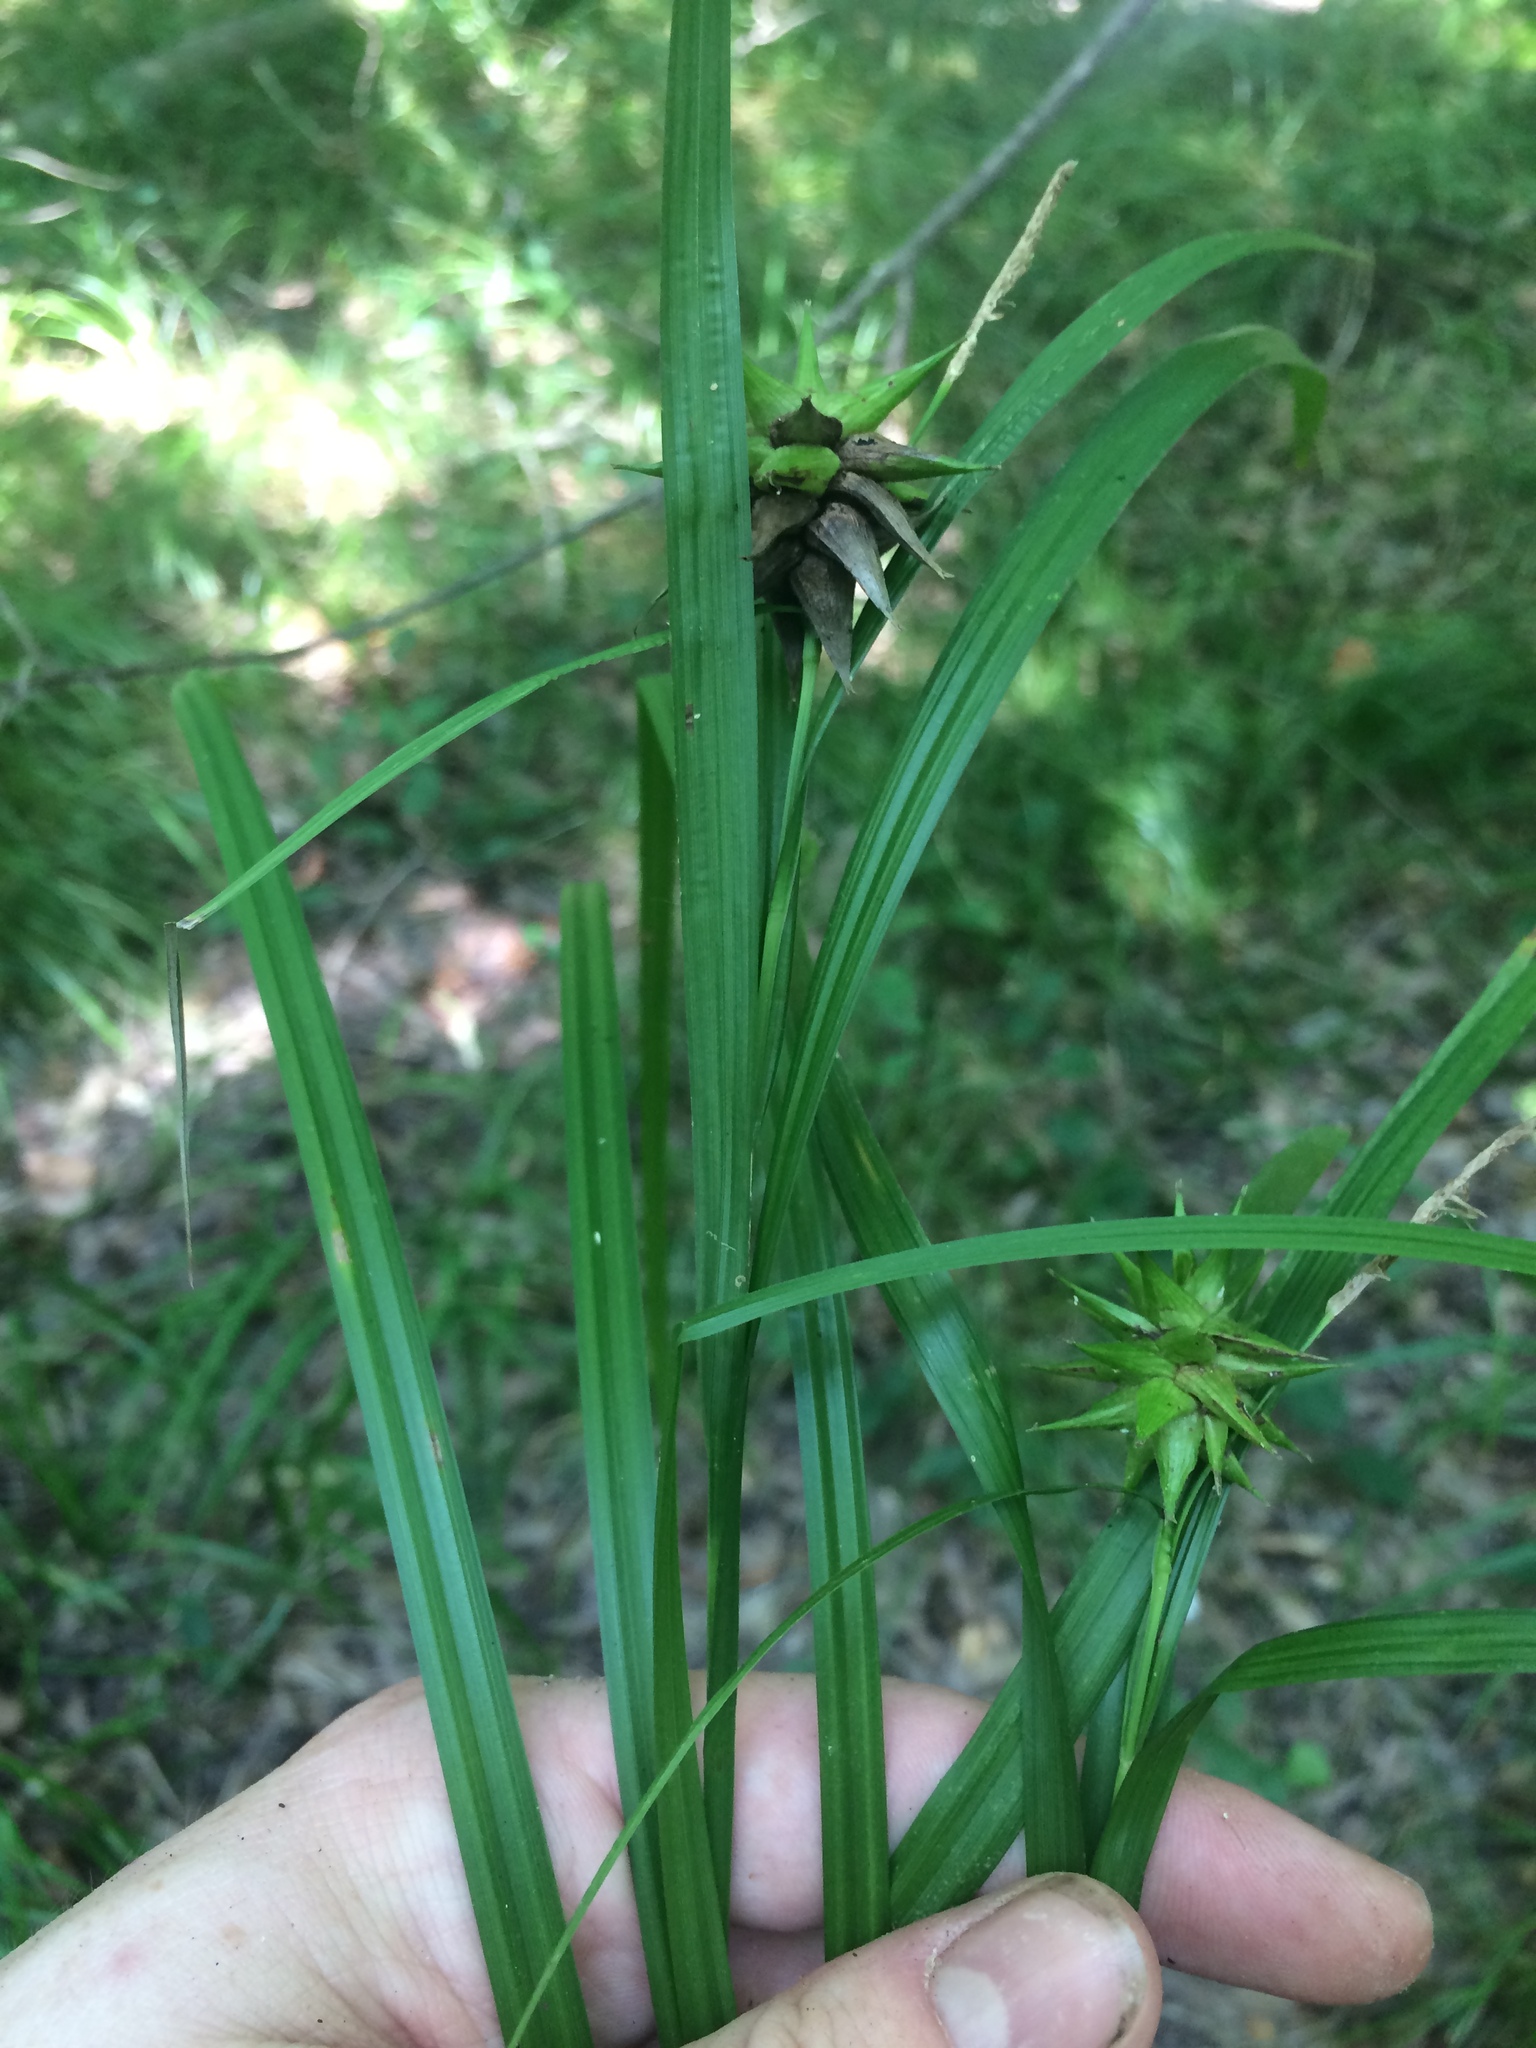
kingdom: Plantae
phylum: Tracheophyta
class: Liliopsida
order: Poales
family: Cyperaceae
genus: Carex
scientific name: Carex grayi
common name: Asa gray's sedge
